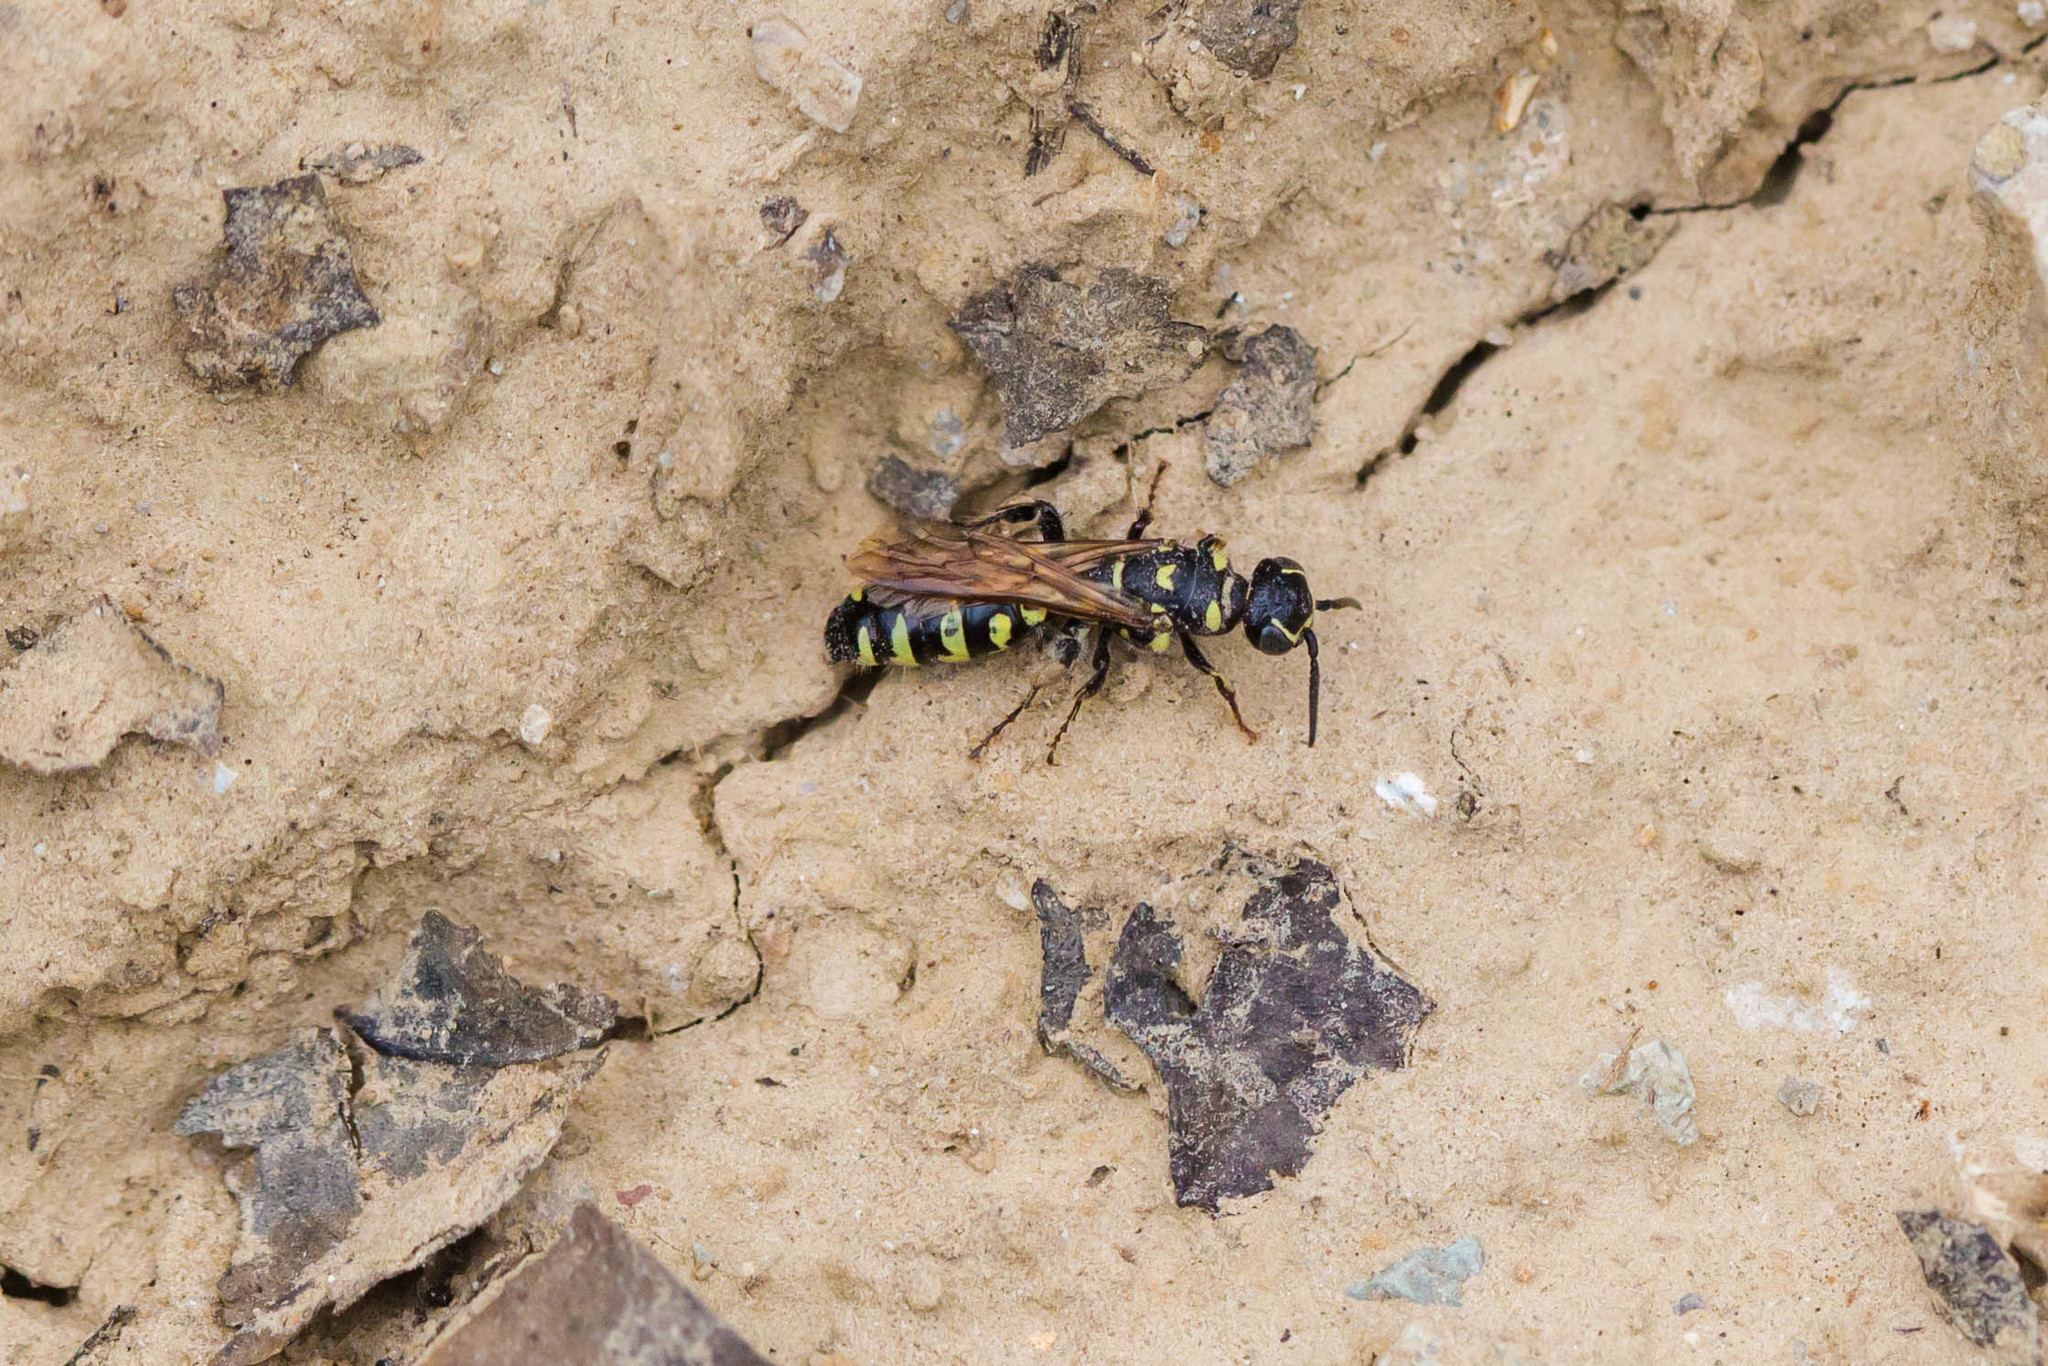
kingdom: Animalia
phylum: Arthropoda
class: Insecta
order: Hymenoptera
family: Tiphiidae
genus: Myzinum
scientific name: Myzinum obscurum
